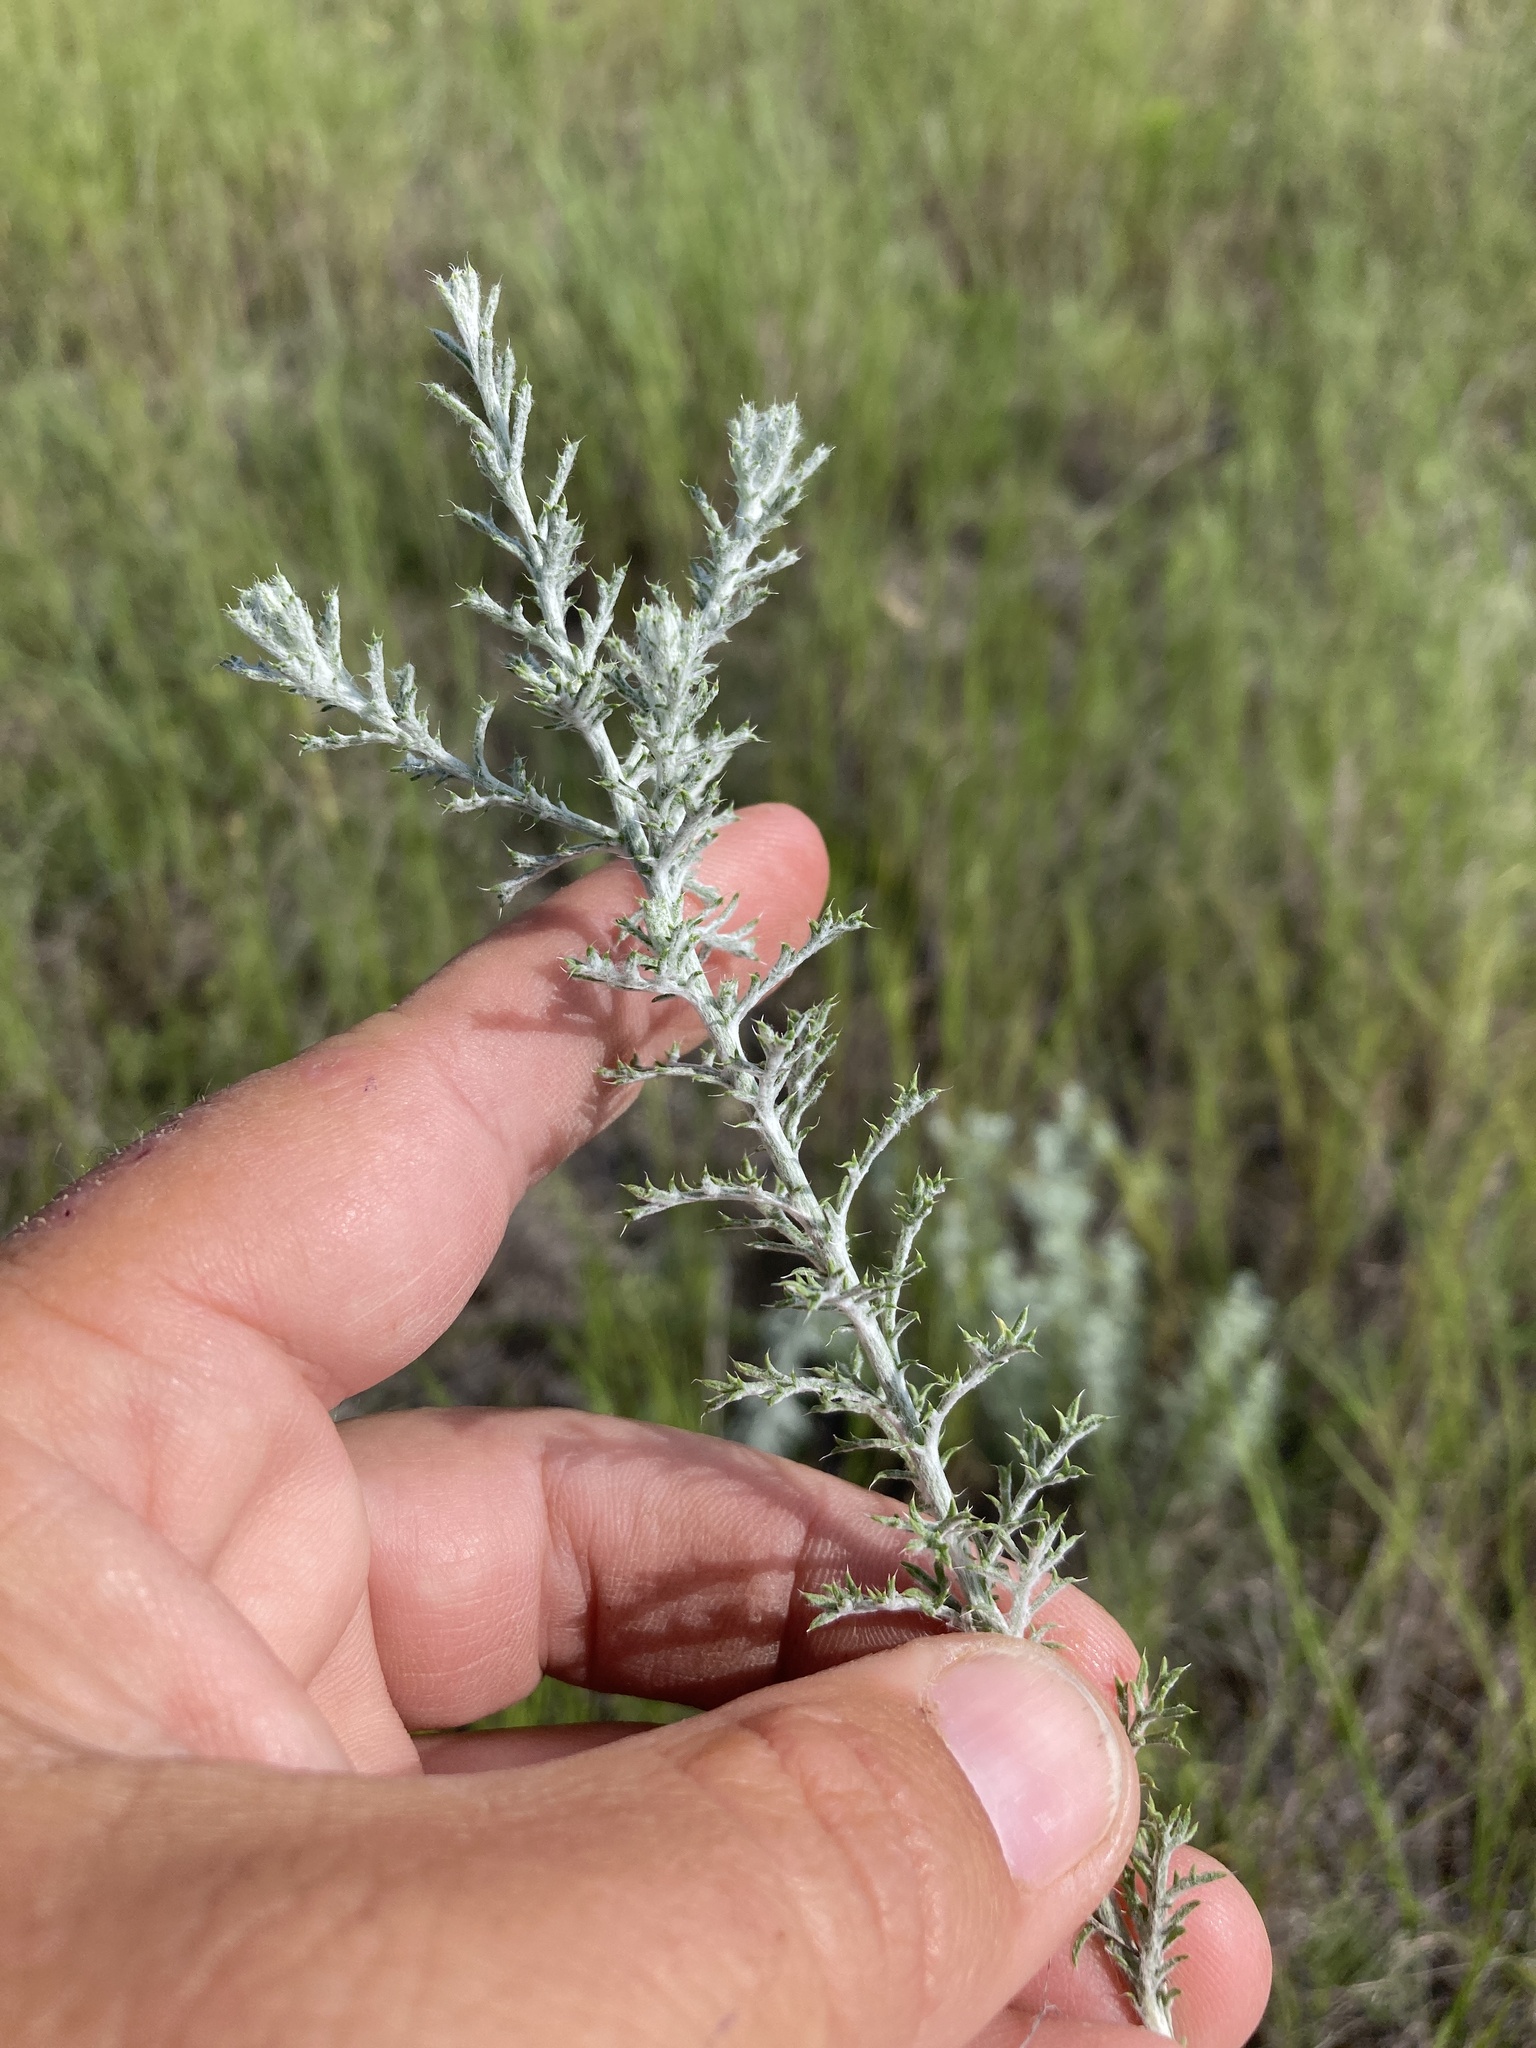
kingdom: Plantae
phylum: Tracheophyta
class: Magnoliopsida
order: Asterales
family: Asteraceae
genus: Xanthisma
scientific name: Xanthisma spinulosum
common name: Spiny goldenweed
